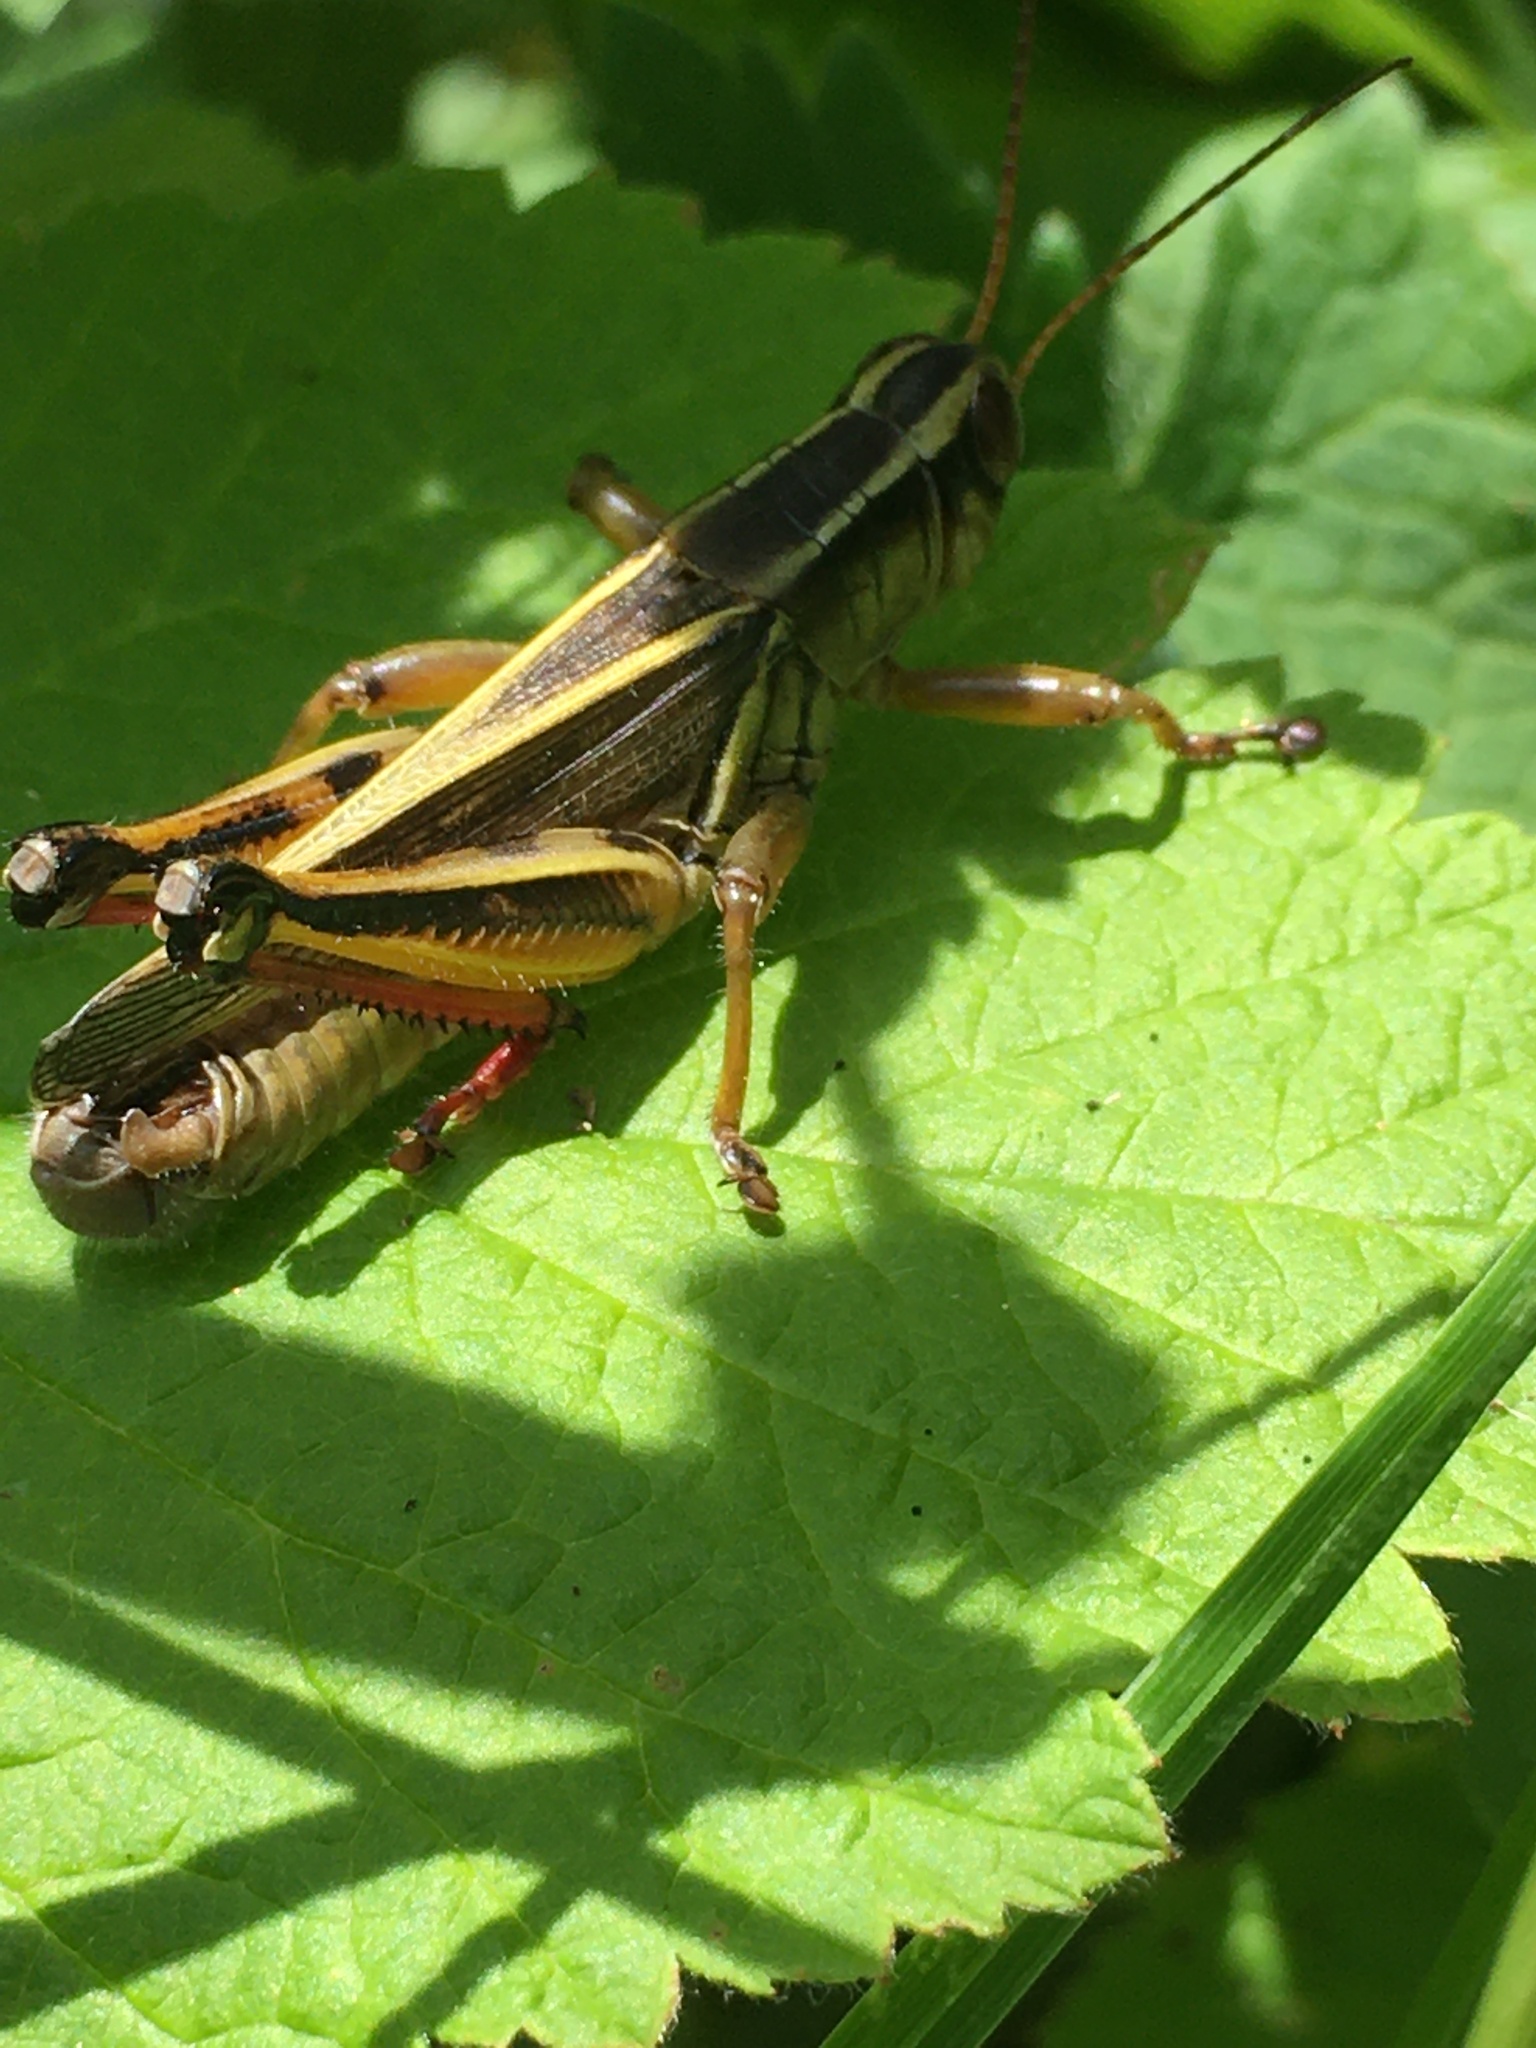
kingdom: Animalia
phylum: Arthropoda
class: Insecta
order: Orthoptera
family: Acrididae
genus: Melanoplus
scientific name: Melanoplus bivittatus
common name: Two-striped grasshopper
